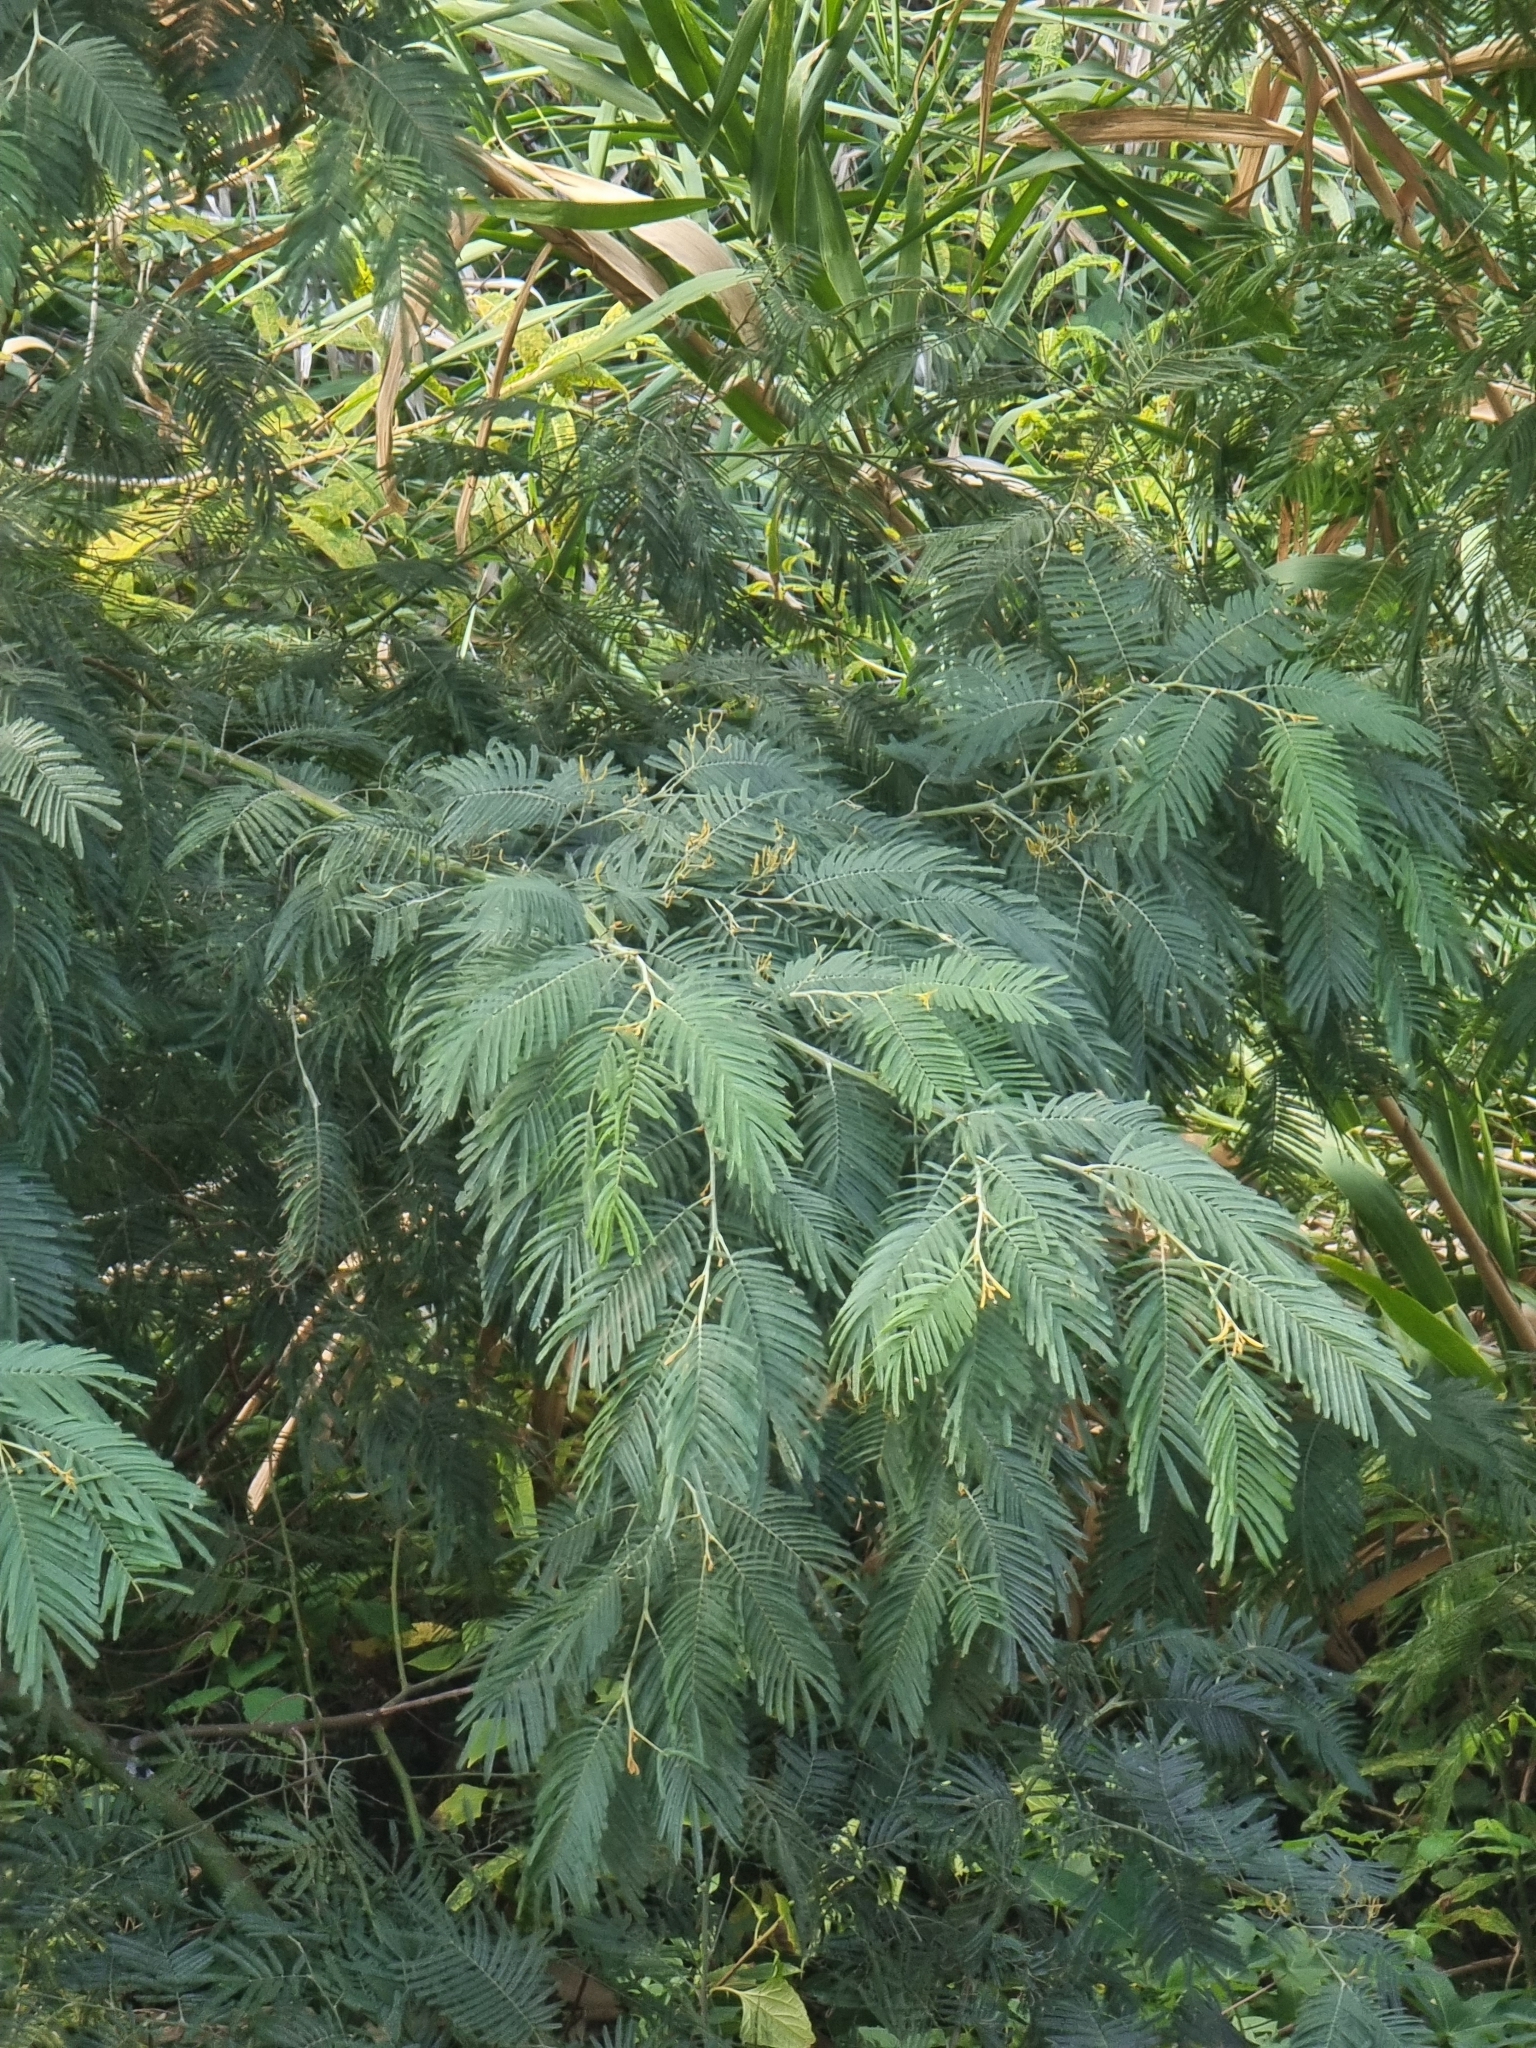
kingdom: Plantae
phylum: Tracheophyta
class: Magnoliopsida
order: Fabales
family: Fabaceae
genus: Acacia
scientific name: Acacia mearnsii
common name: Black wattle
